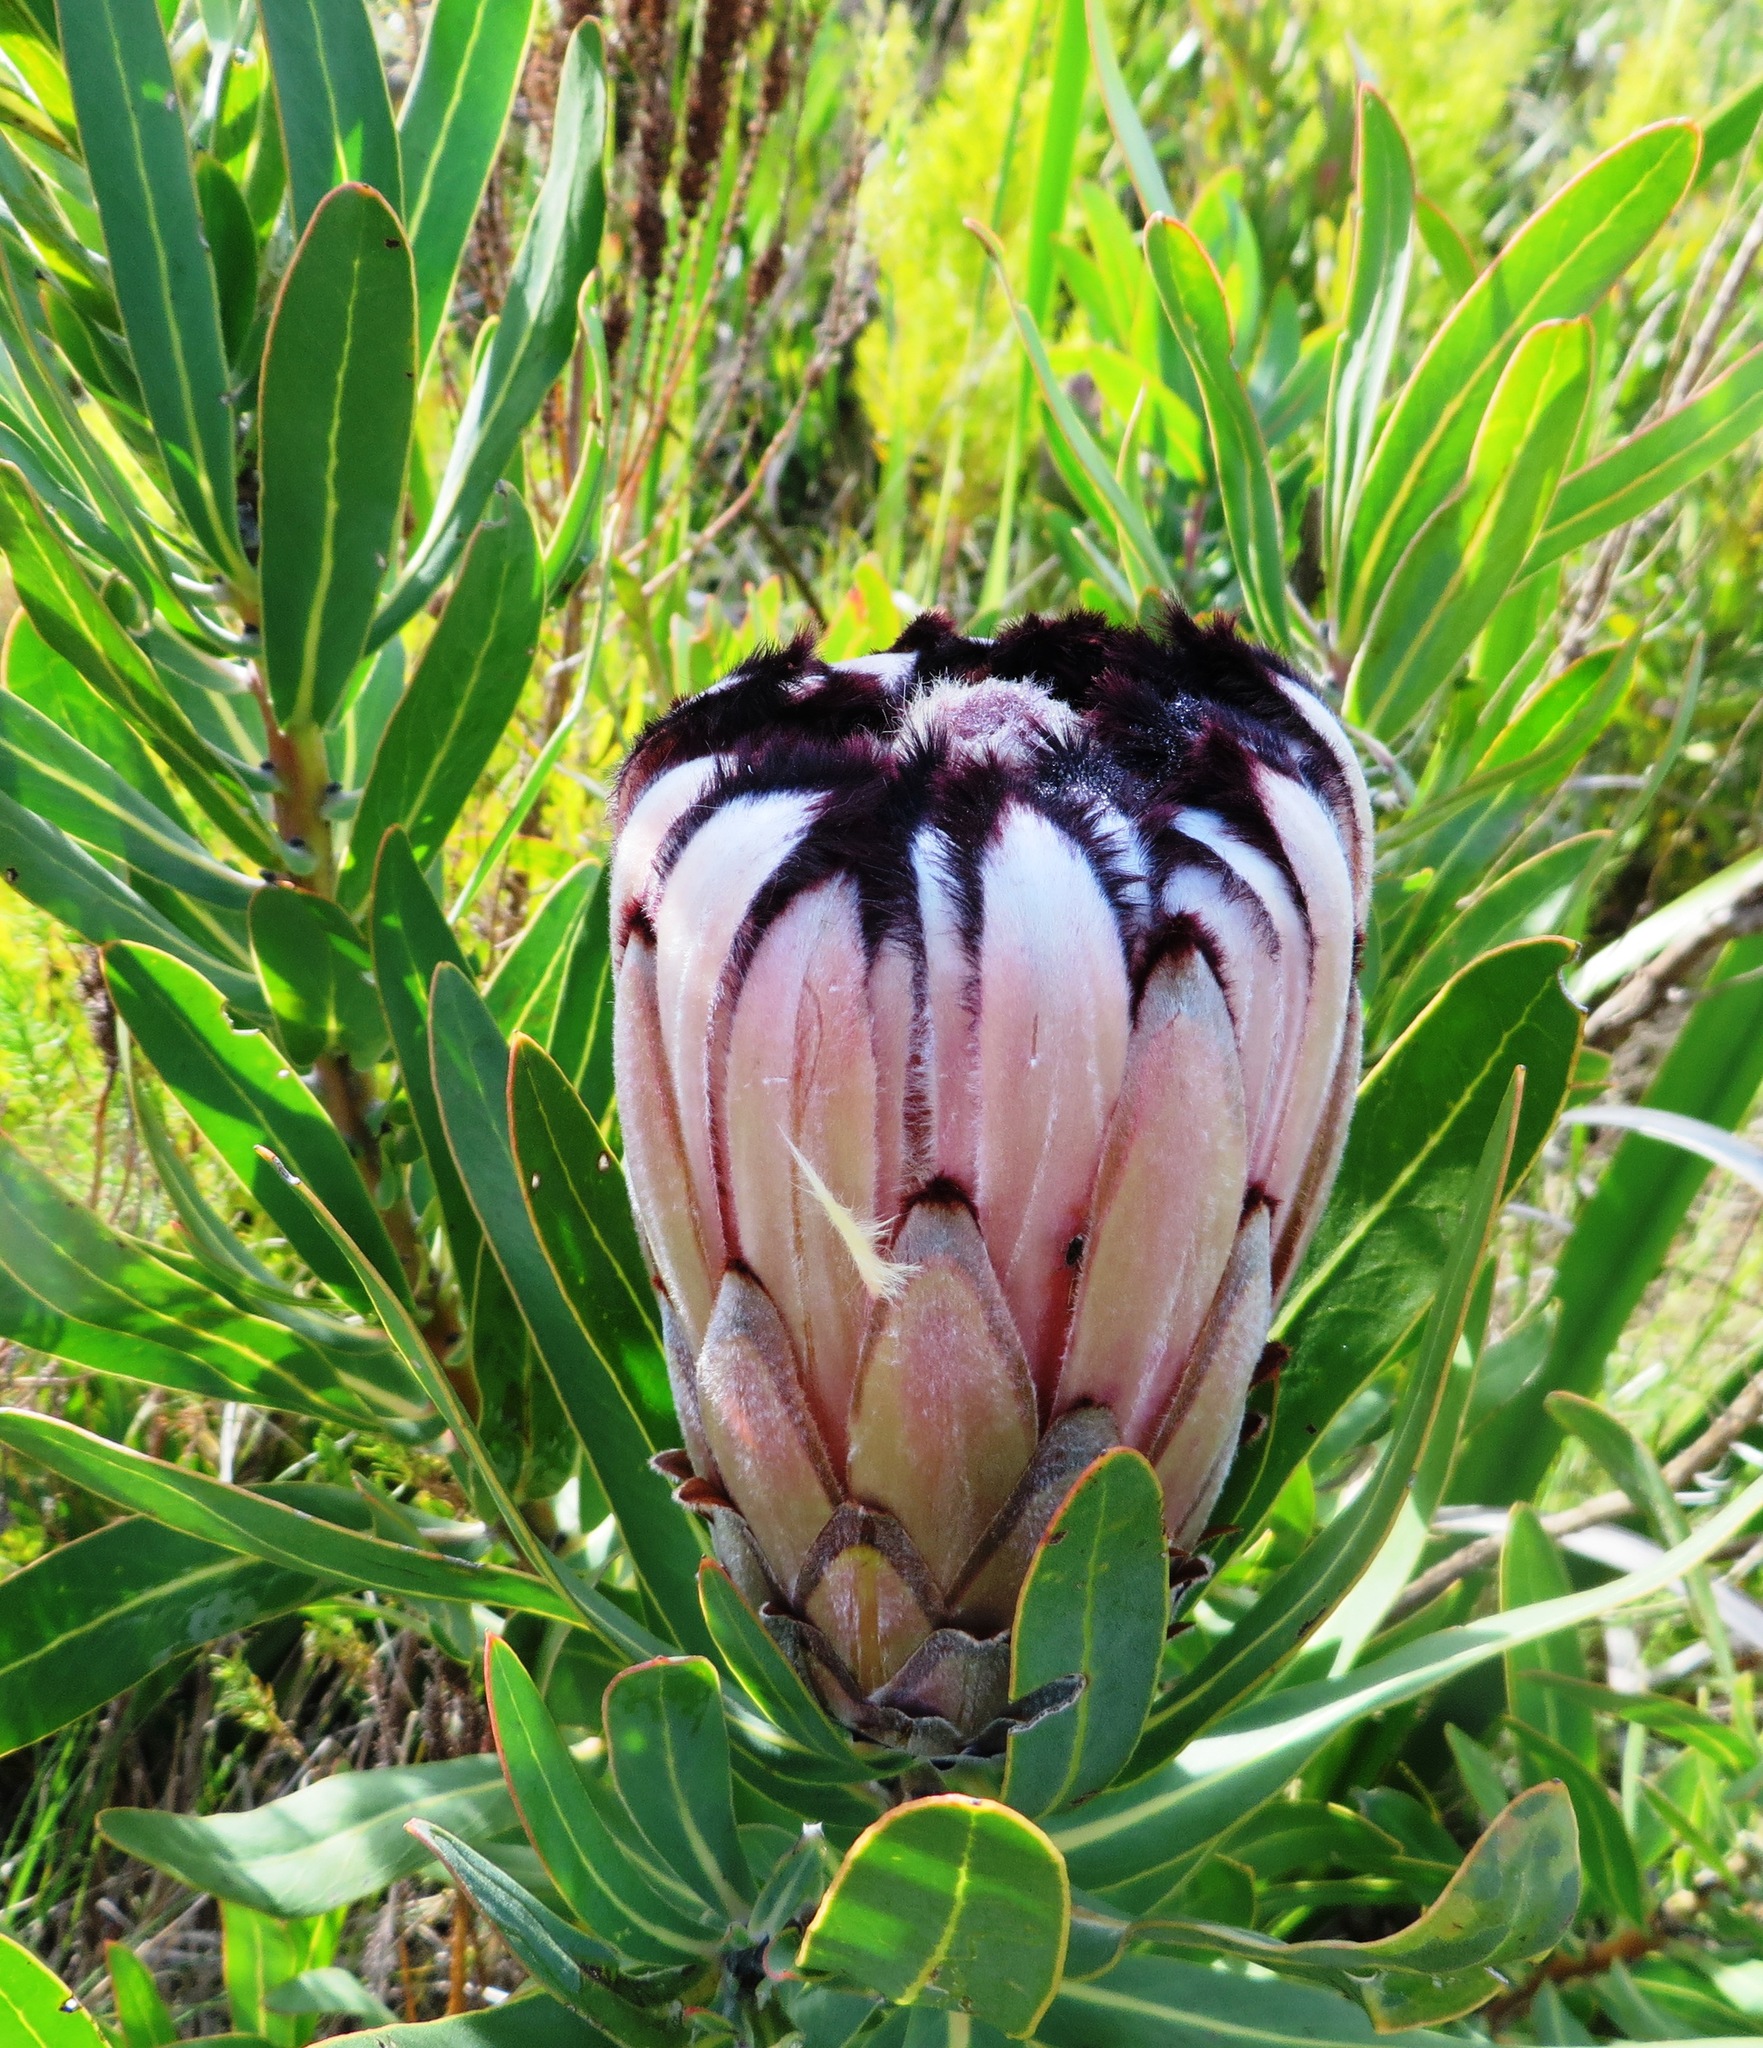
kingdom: Plantae
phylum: Tracheophyta
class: Magnoliopsida
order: Proteales
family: Proteaceae
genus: Protea
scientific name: Protea neriifolia
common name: Blue sugarbush
